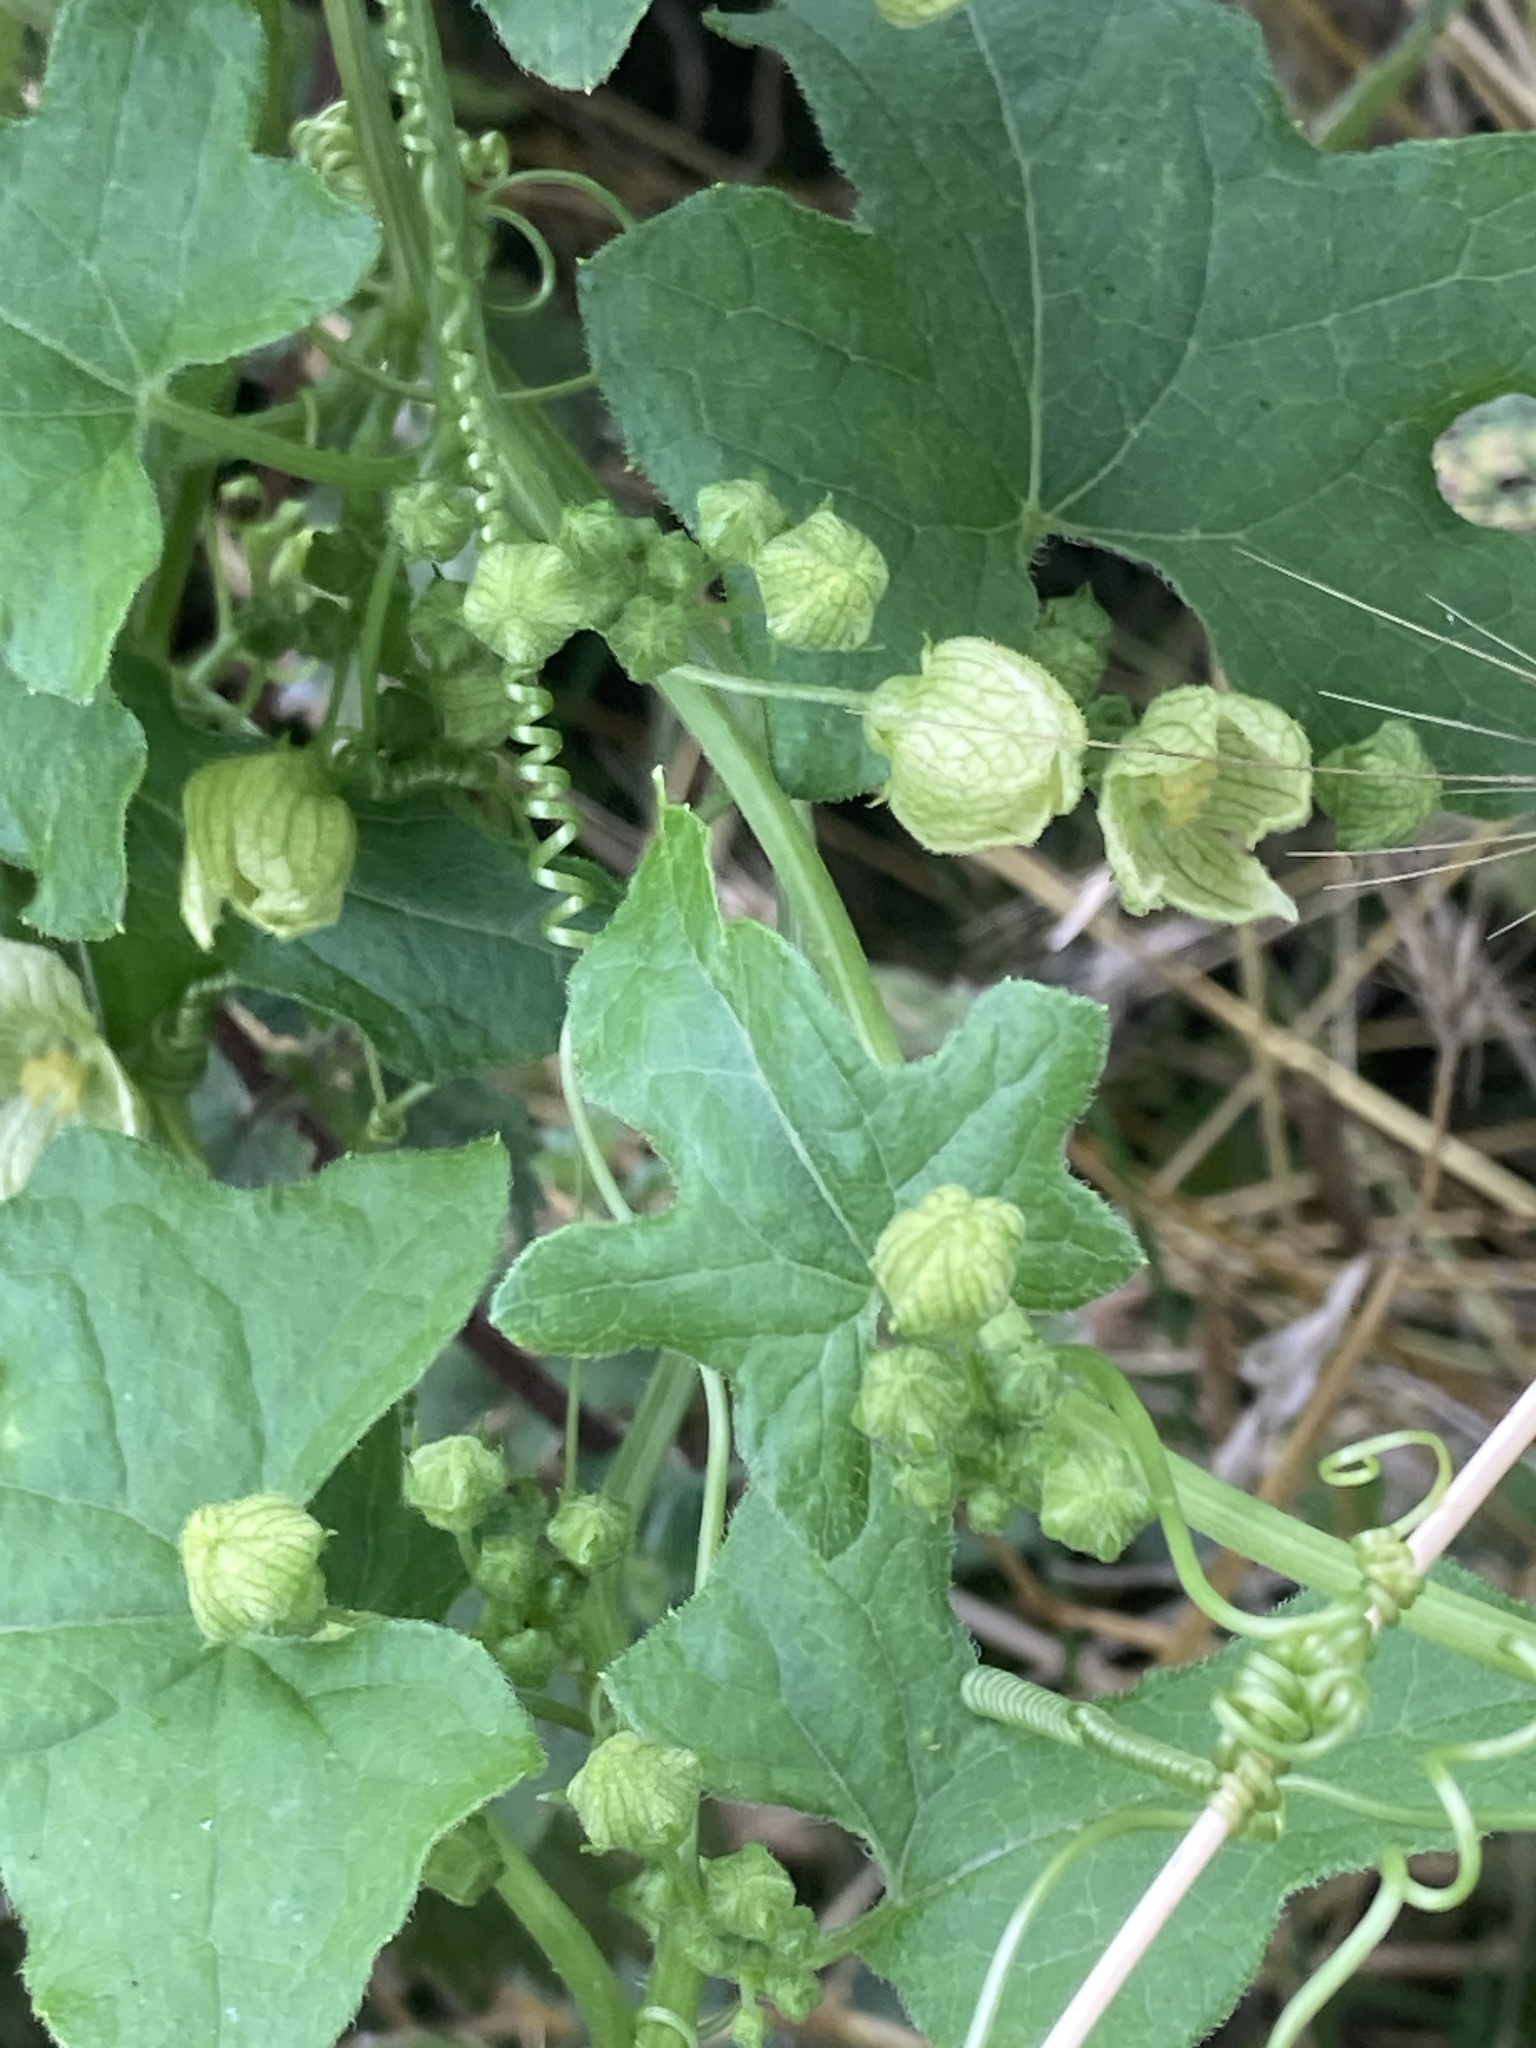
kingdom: Plantae
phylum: Tracheophyta
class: Magnoliopsida
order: Cucurbitales
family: Cucurbitaceae
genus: Bryonia
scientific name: Bryonia cretica
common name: Cretan bryony
